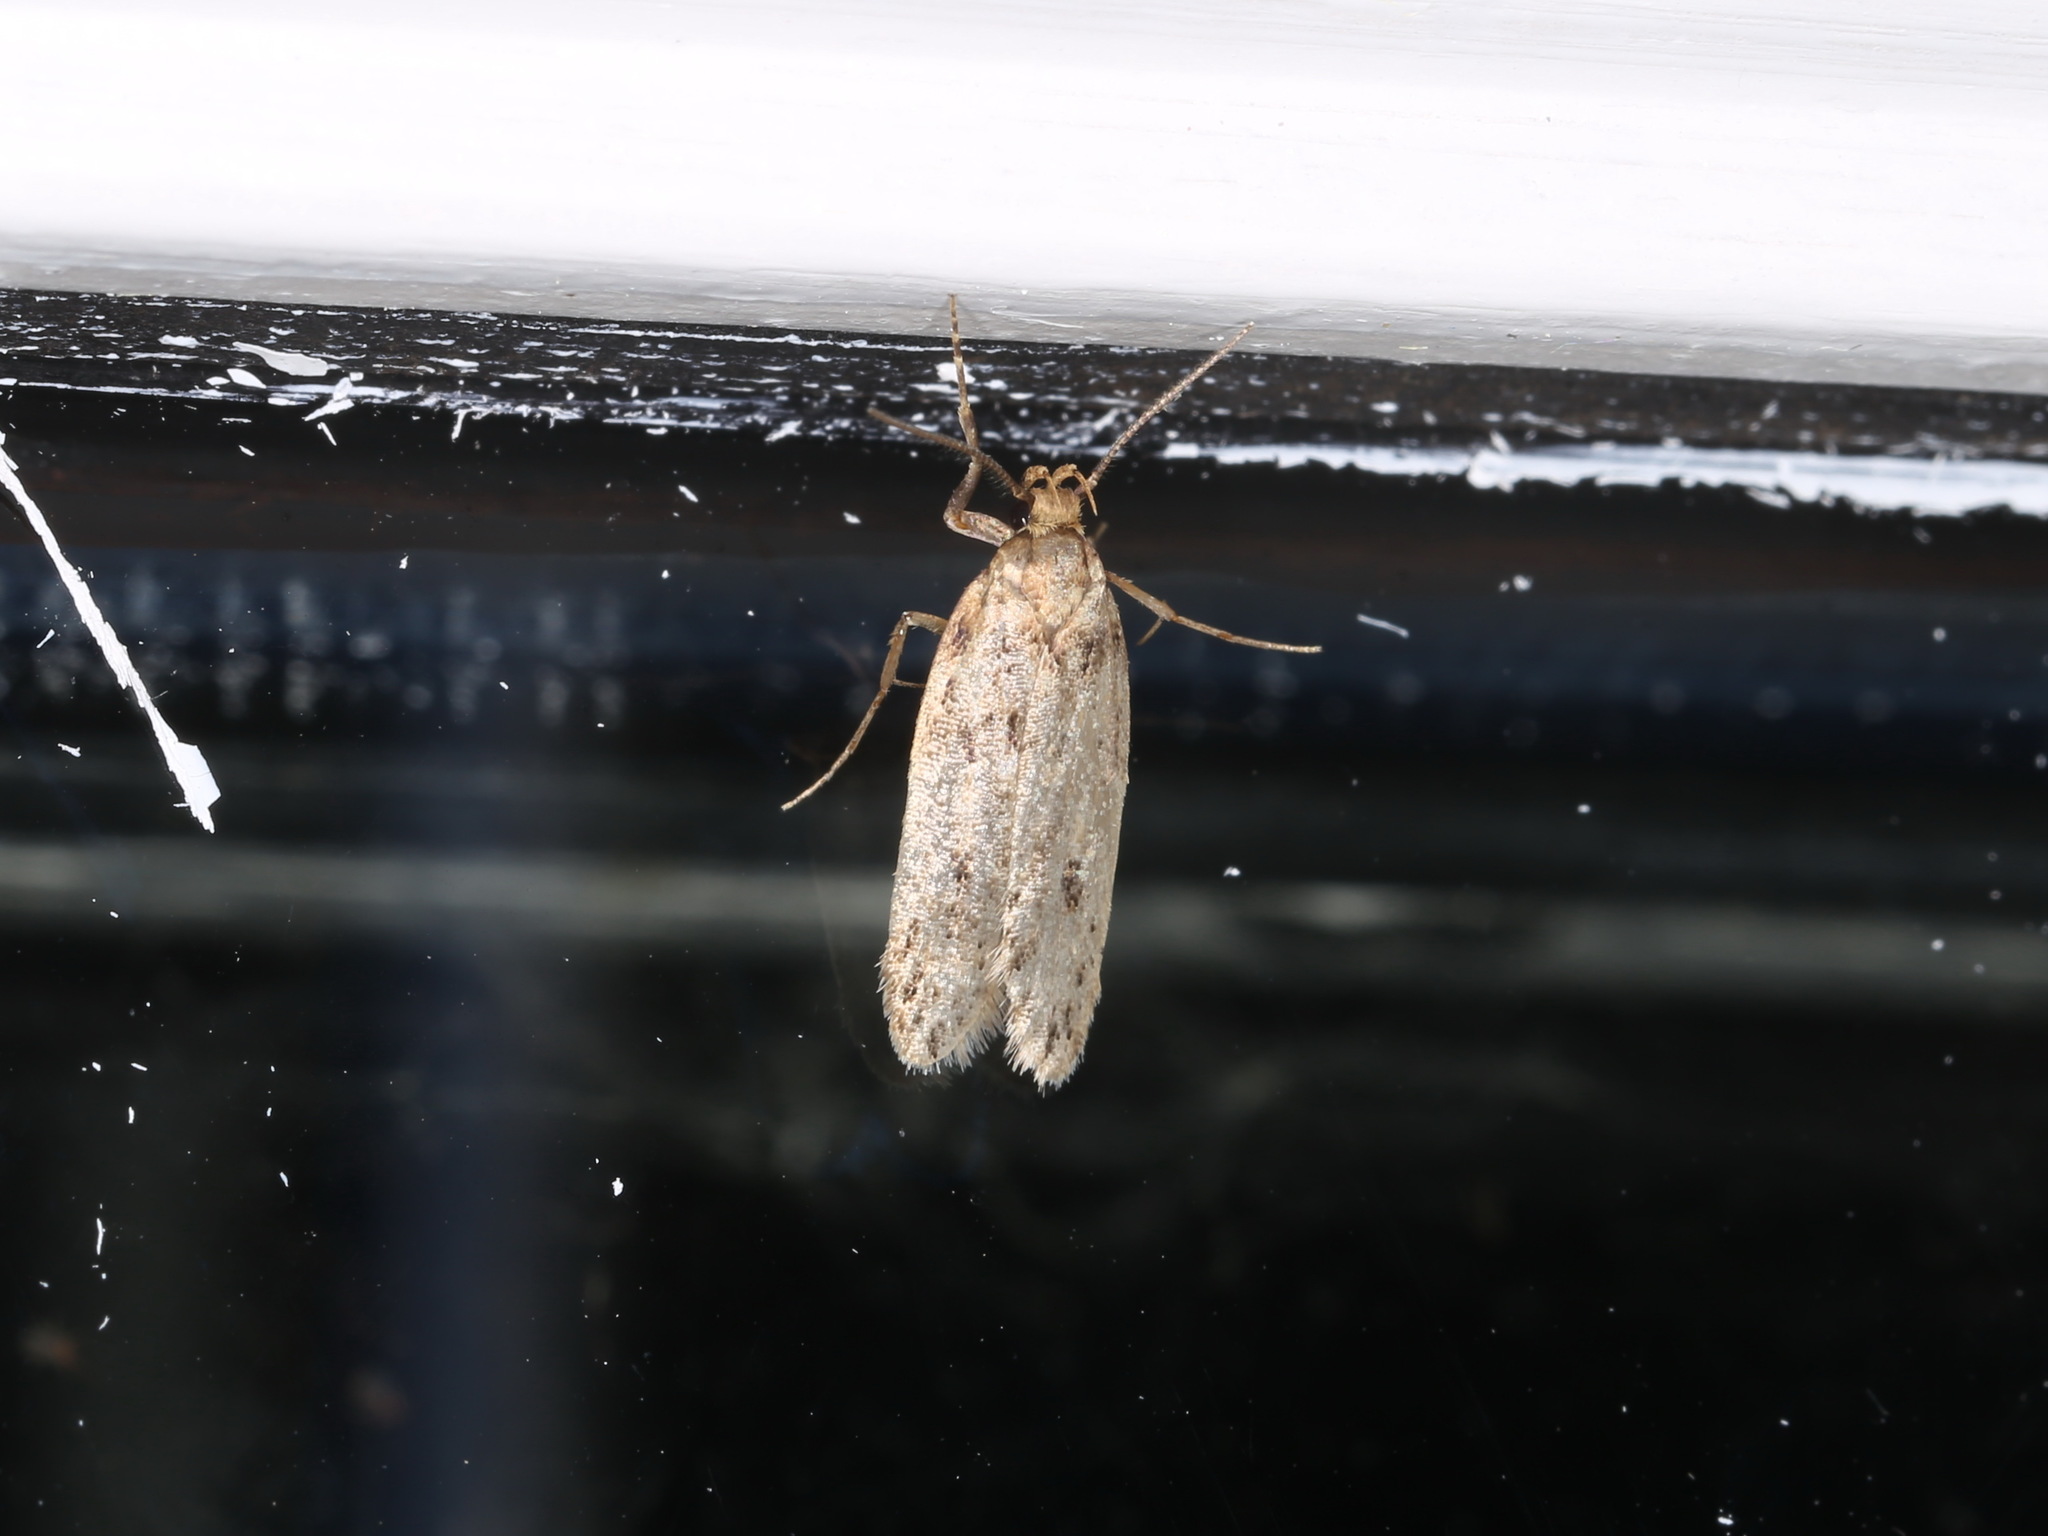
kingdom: Animalia
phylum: Arthropoda
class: Insecta
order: Lepidoptera
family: Oecophoridae
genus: Hofmannophila
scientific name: Hofmannophila pseudospretella
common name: Brown house moth
